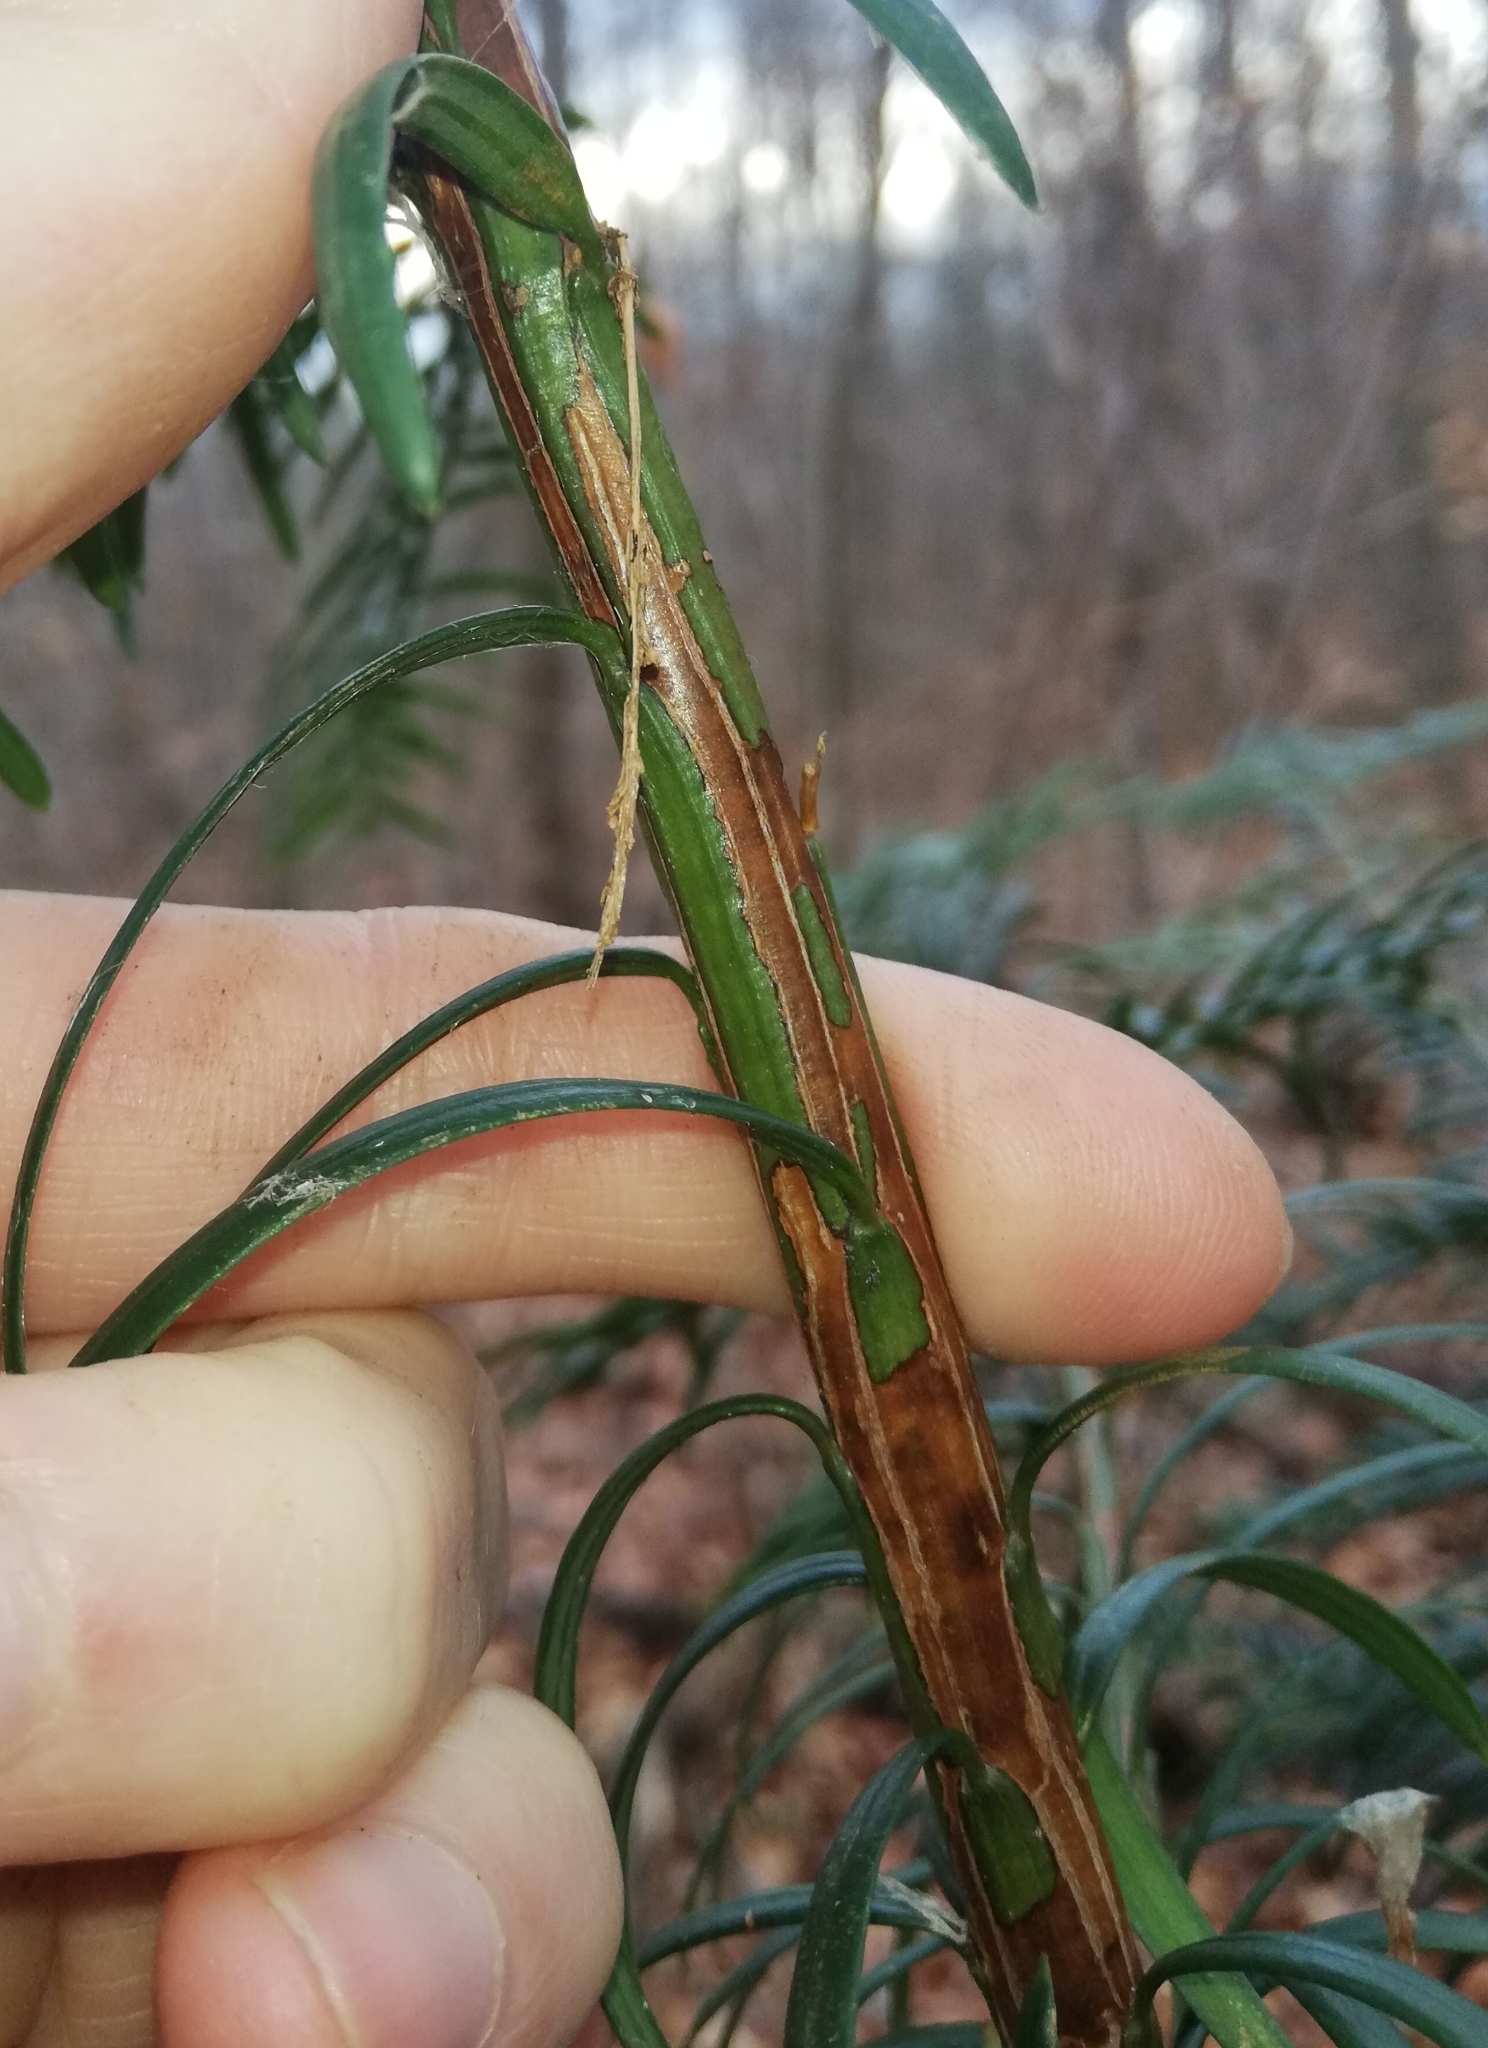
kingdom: Plantae
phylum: Tracheophyta
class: Pinopsida
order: Pinales
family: Taxaceae
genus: Taxus
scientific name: Taxus baccata
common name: Yew
